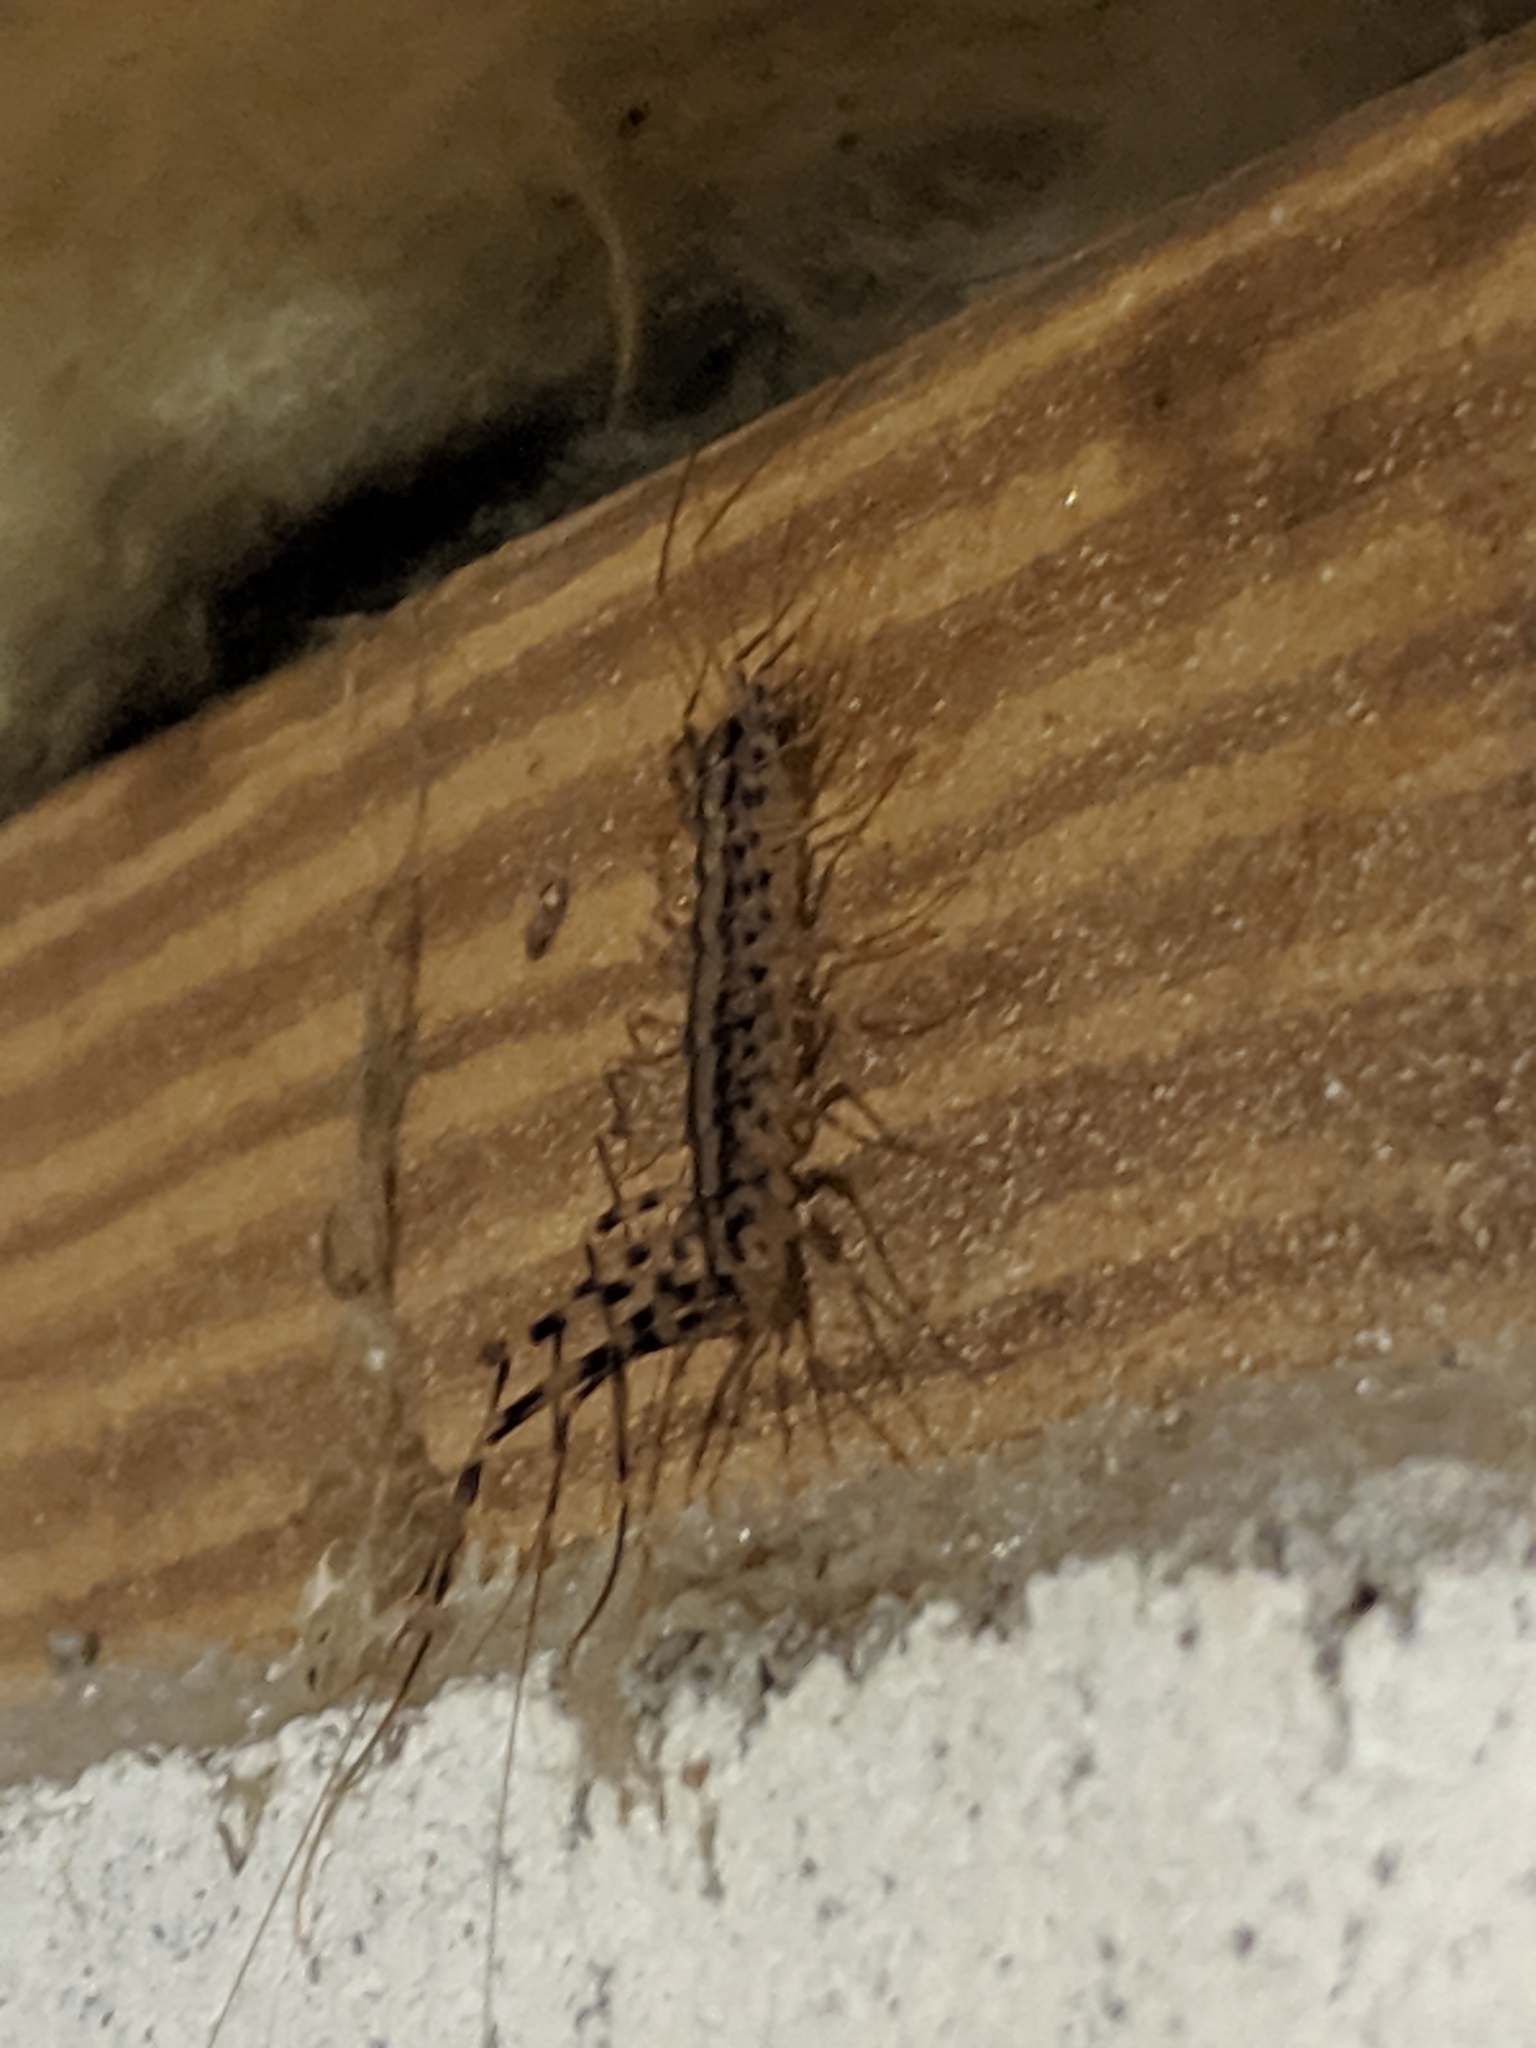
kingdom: Animalia
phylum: Arthropoda
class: Chilopoda
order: Scutigeromorpha
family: Scutigeridae
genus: Scutigera
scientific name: Scutigera coleoptrata
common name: House centipede
